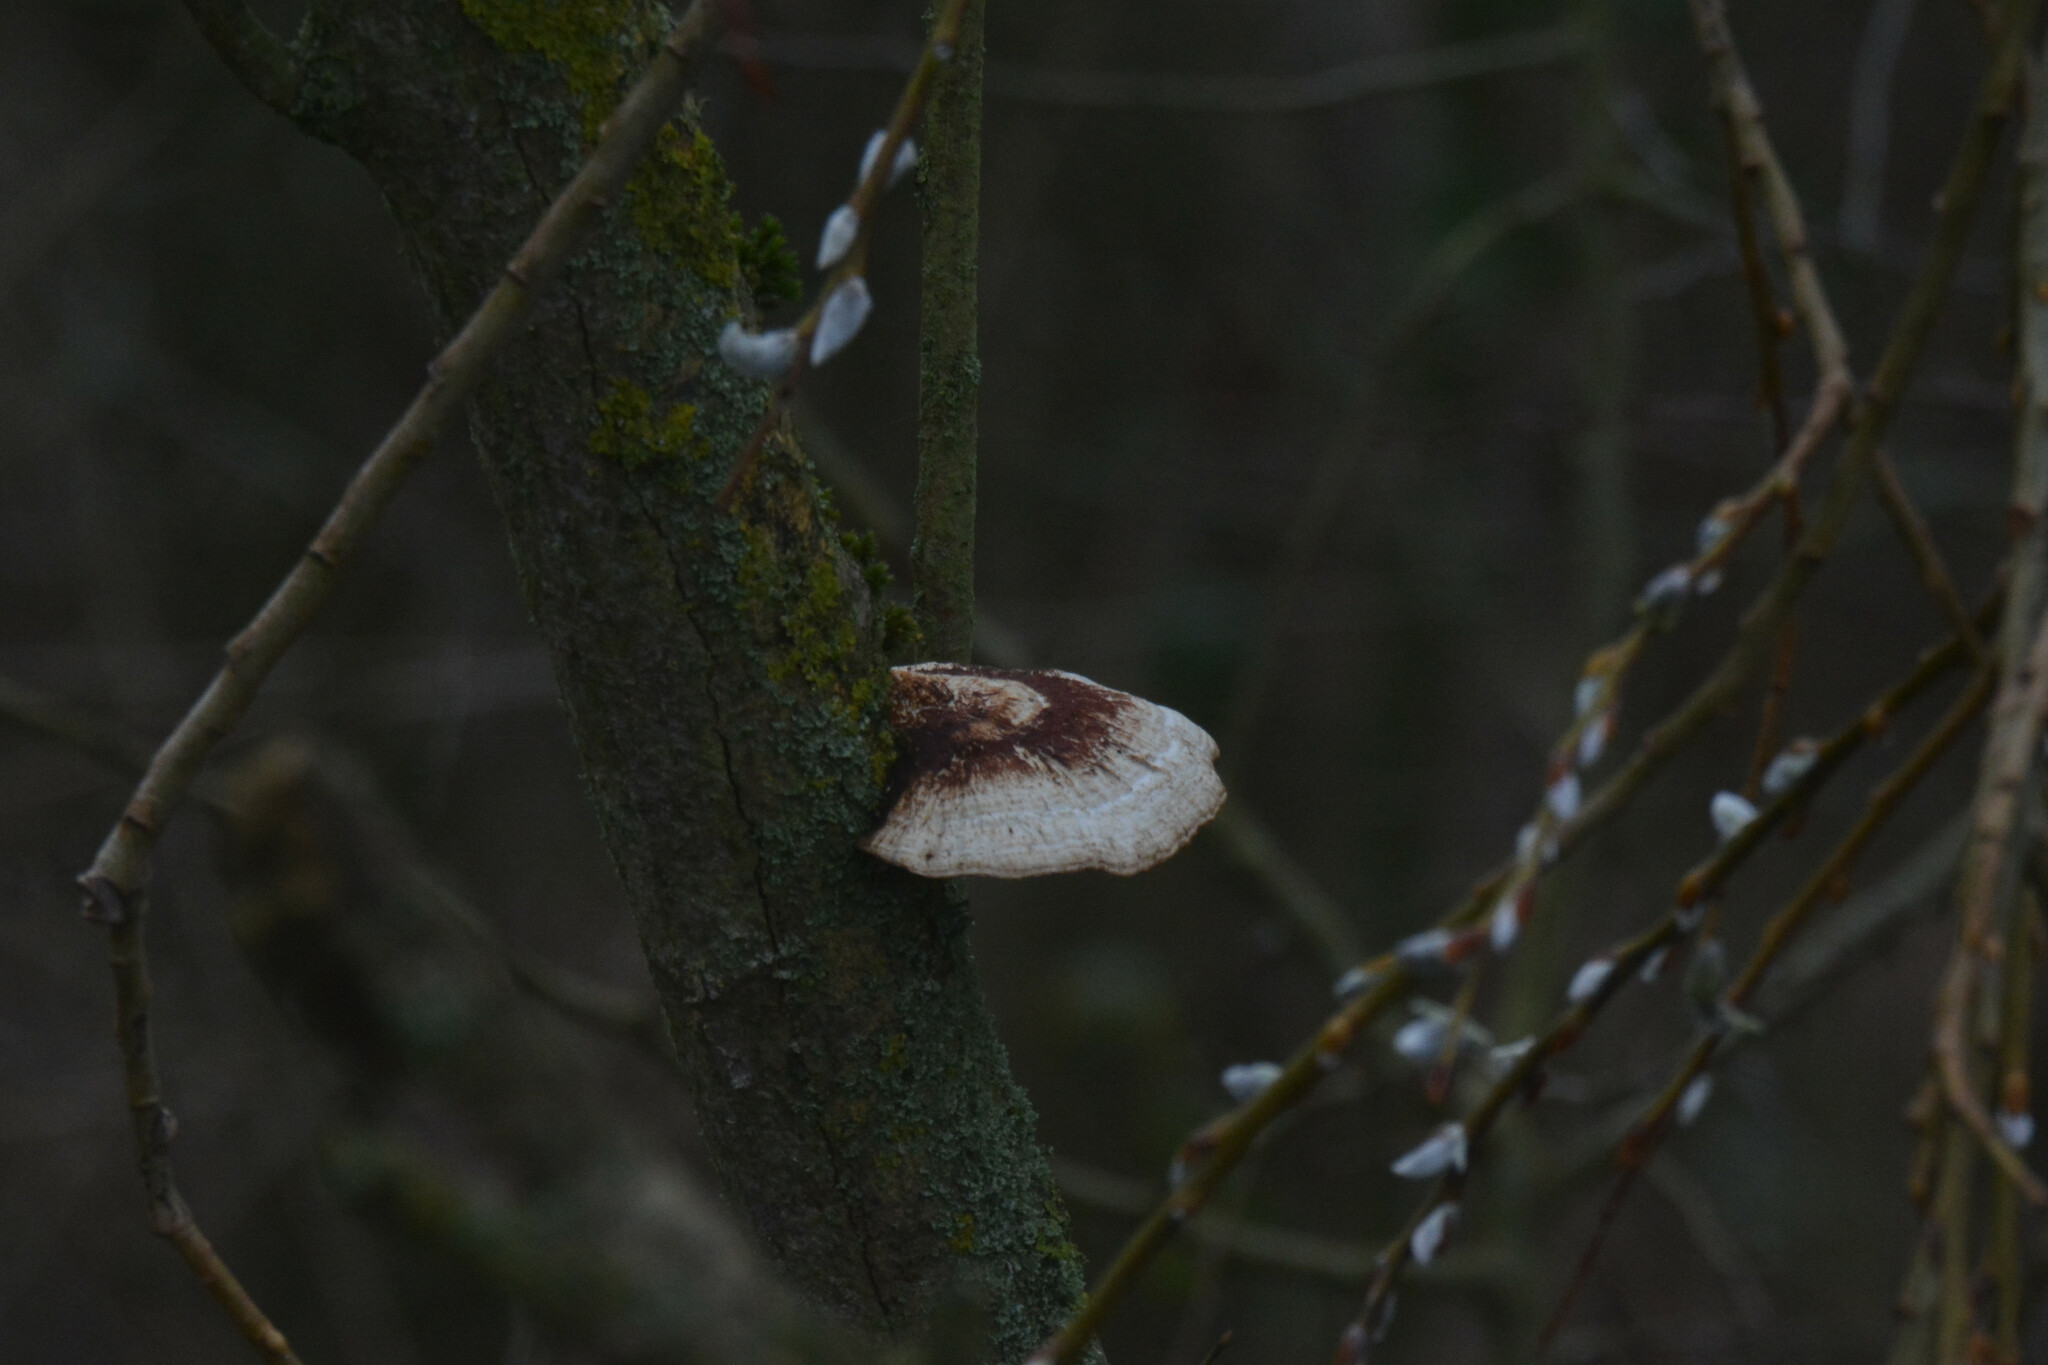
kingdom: Fungi
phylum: Basidiomycota
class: Agaricomycetes
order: Polyporales
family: Polyporaceae
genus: Daedaleopsis
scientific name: Daedaleopsis confragosa
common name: Blushing bracket
